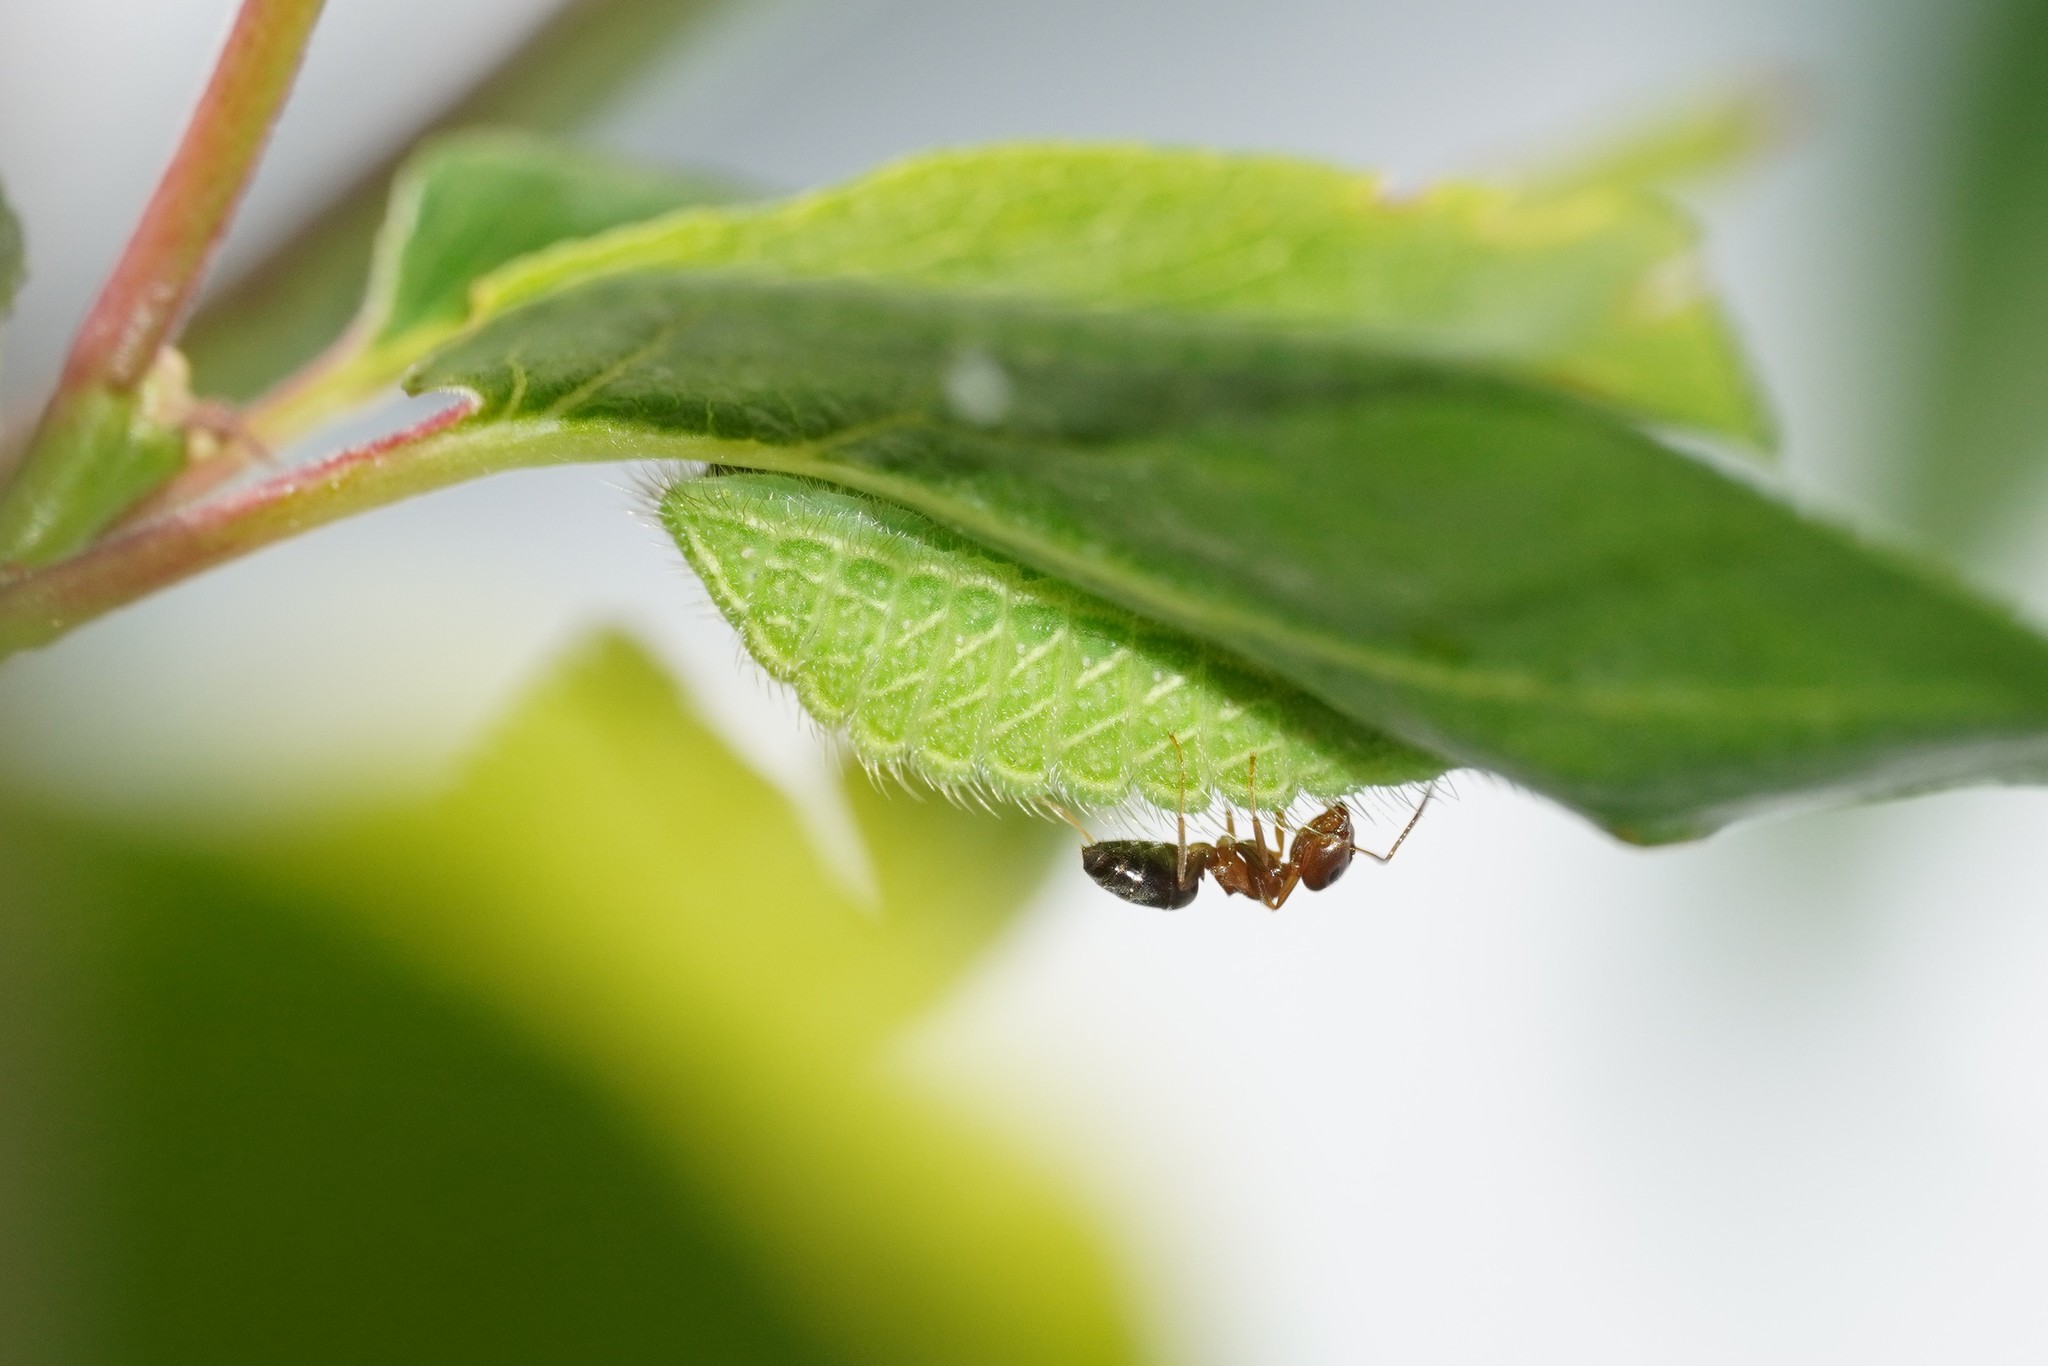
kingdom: Animalia
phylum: Arthropoda
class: Insecta
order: Lepidoptera
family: Lycaenidae
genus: Thecla
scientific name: Thecla betulae
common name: Brown hairstreak
